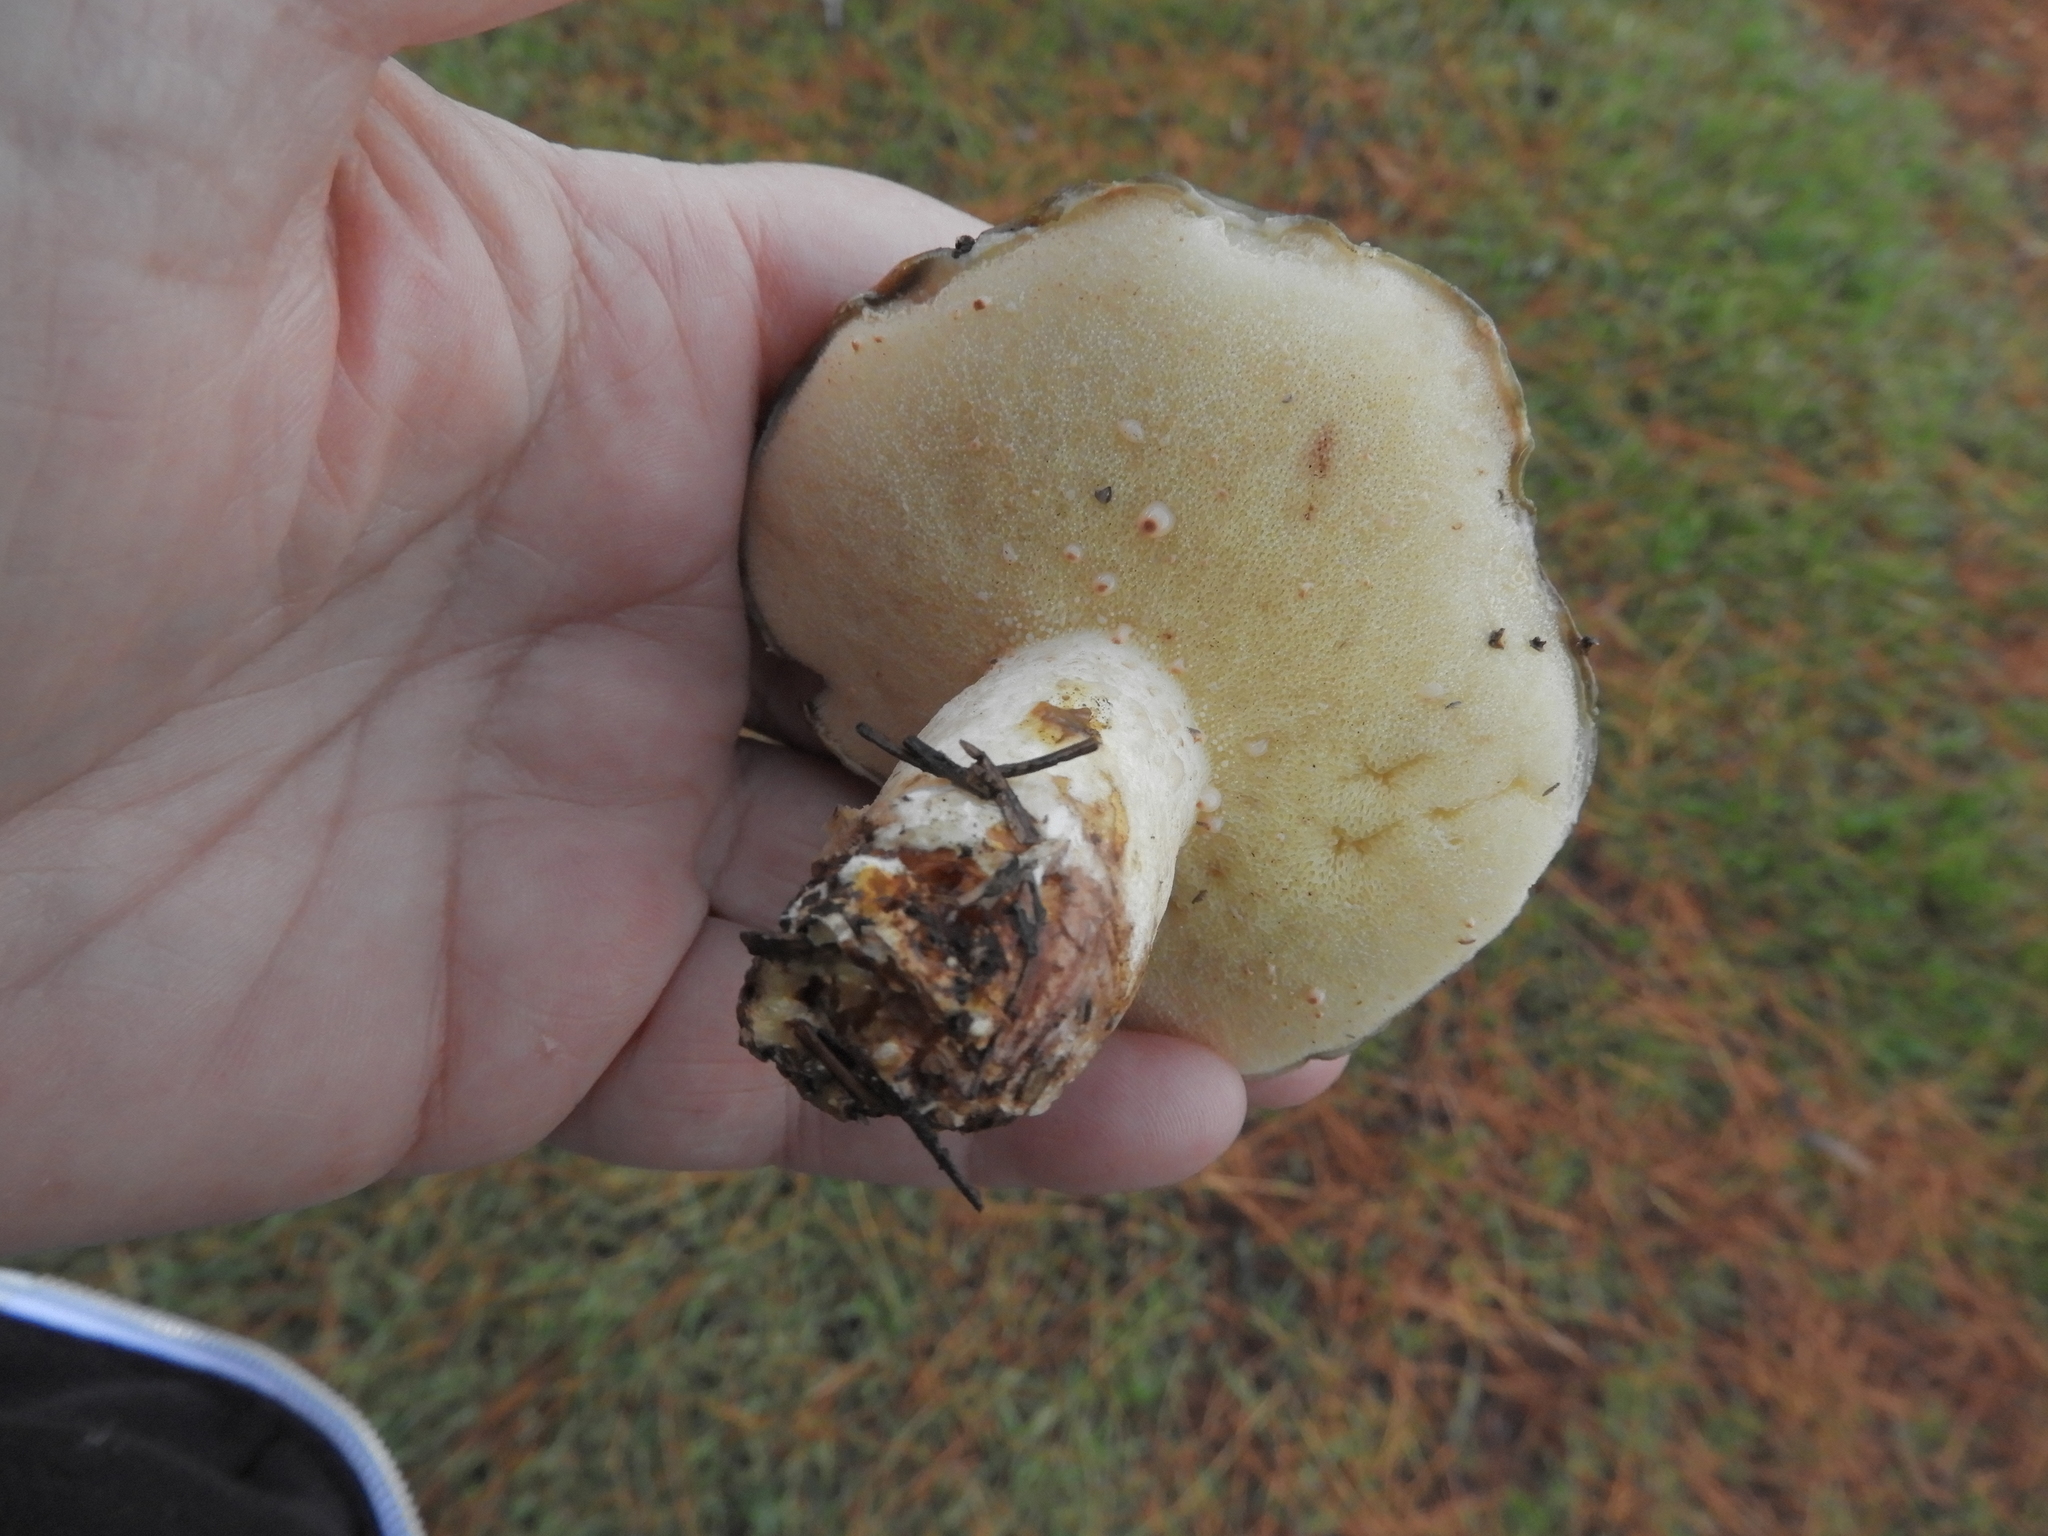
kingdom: Fungi
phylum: Basidiomycota
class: Agaricomycetes
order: Boletales
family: Suillaceae
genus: Suillus
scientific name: Suillus pungens
